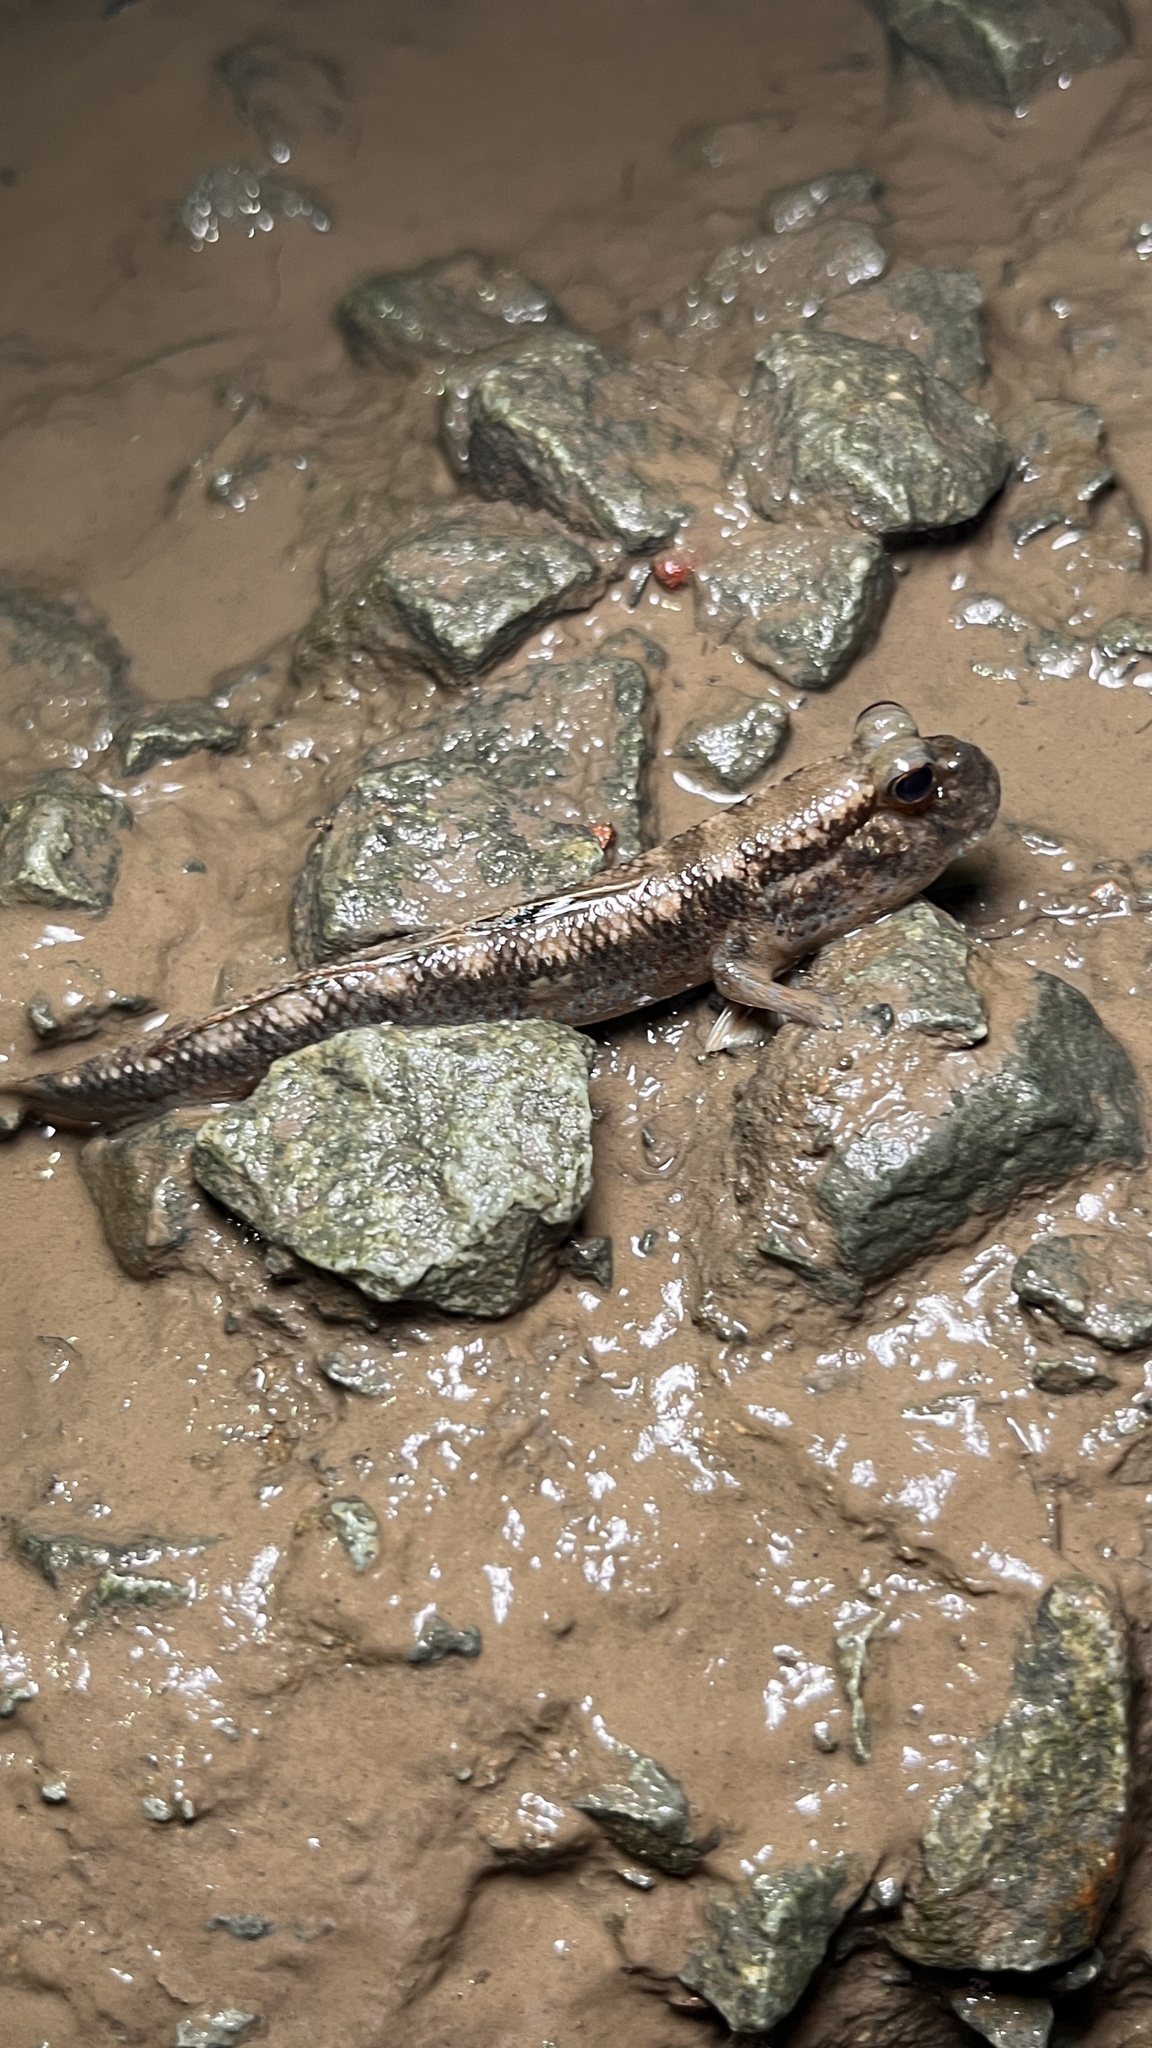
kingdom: Animalia
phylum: Chordata
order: Perciformes
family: Gobiidae
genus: Periophthalmodon
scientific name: Periophthalmodon septemradiatus
